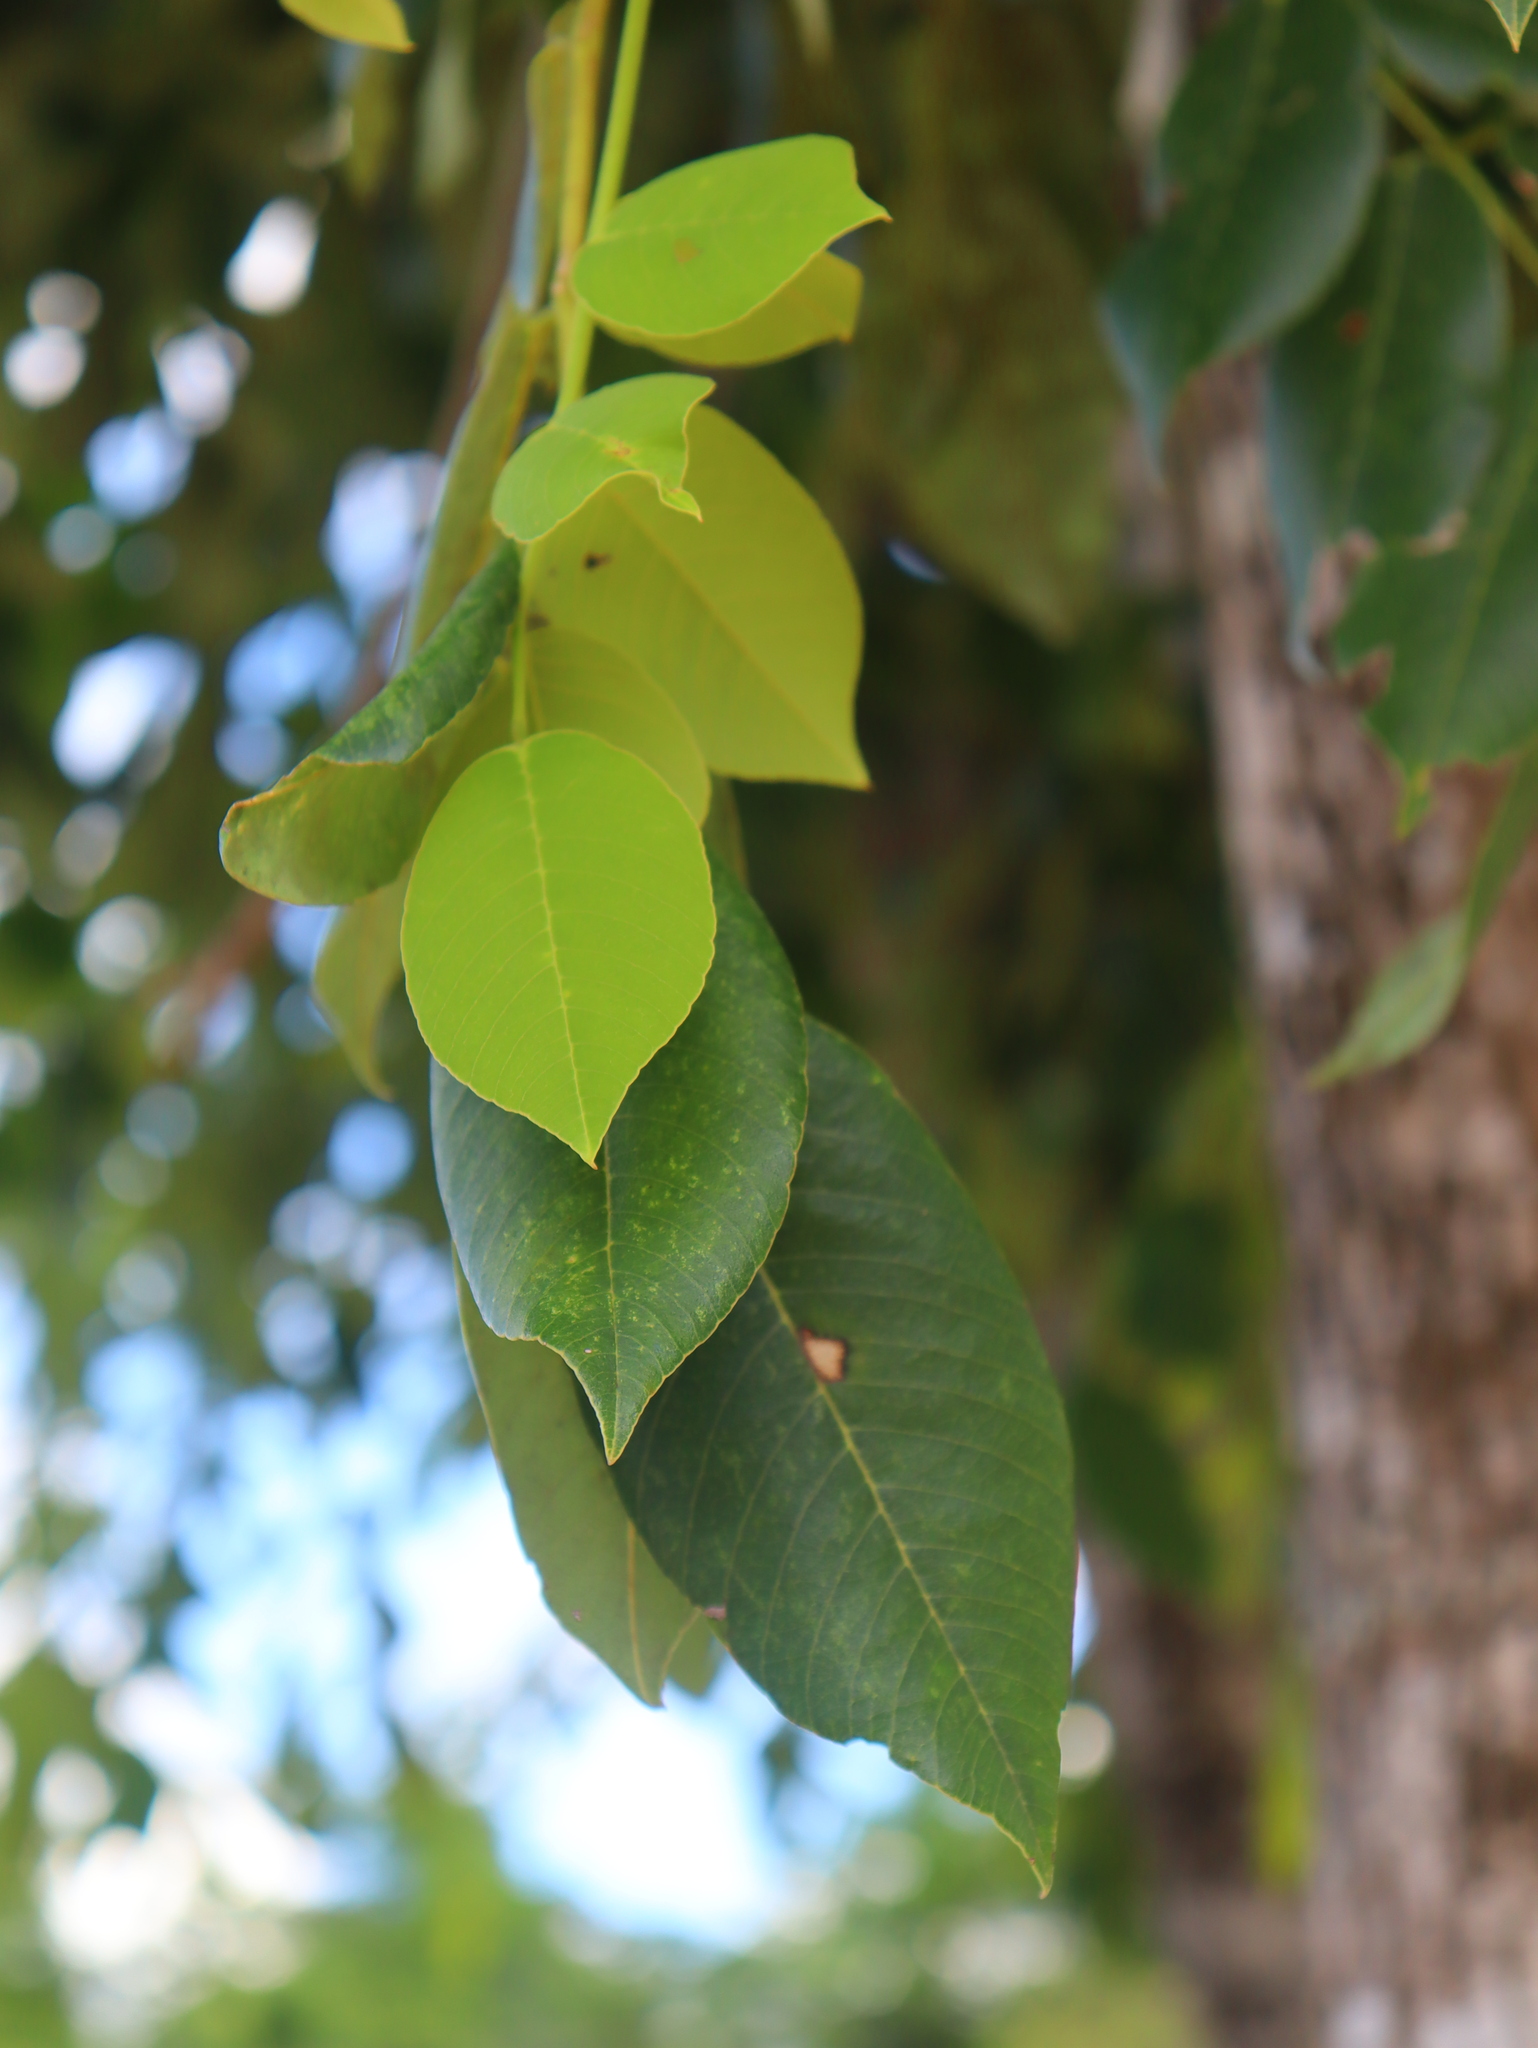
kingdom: Plantae
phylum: Tracheophyta
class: Magnoliopsida
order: Fabales
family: Fabaceae
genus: Piscidia
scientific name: Piscidia piscipula
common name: Florida fishpoison tree
